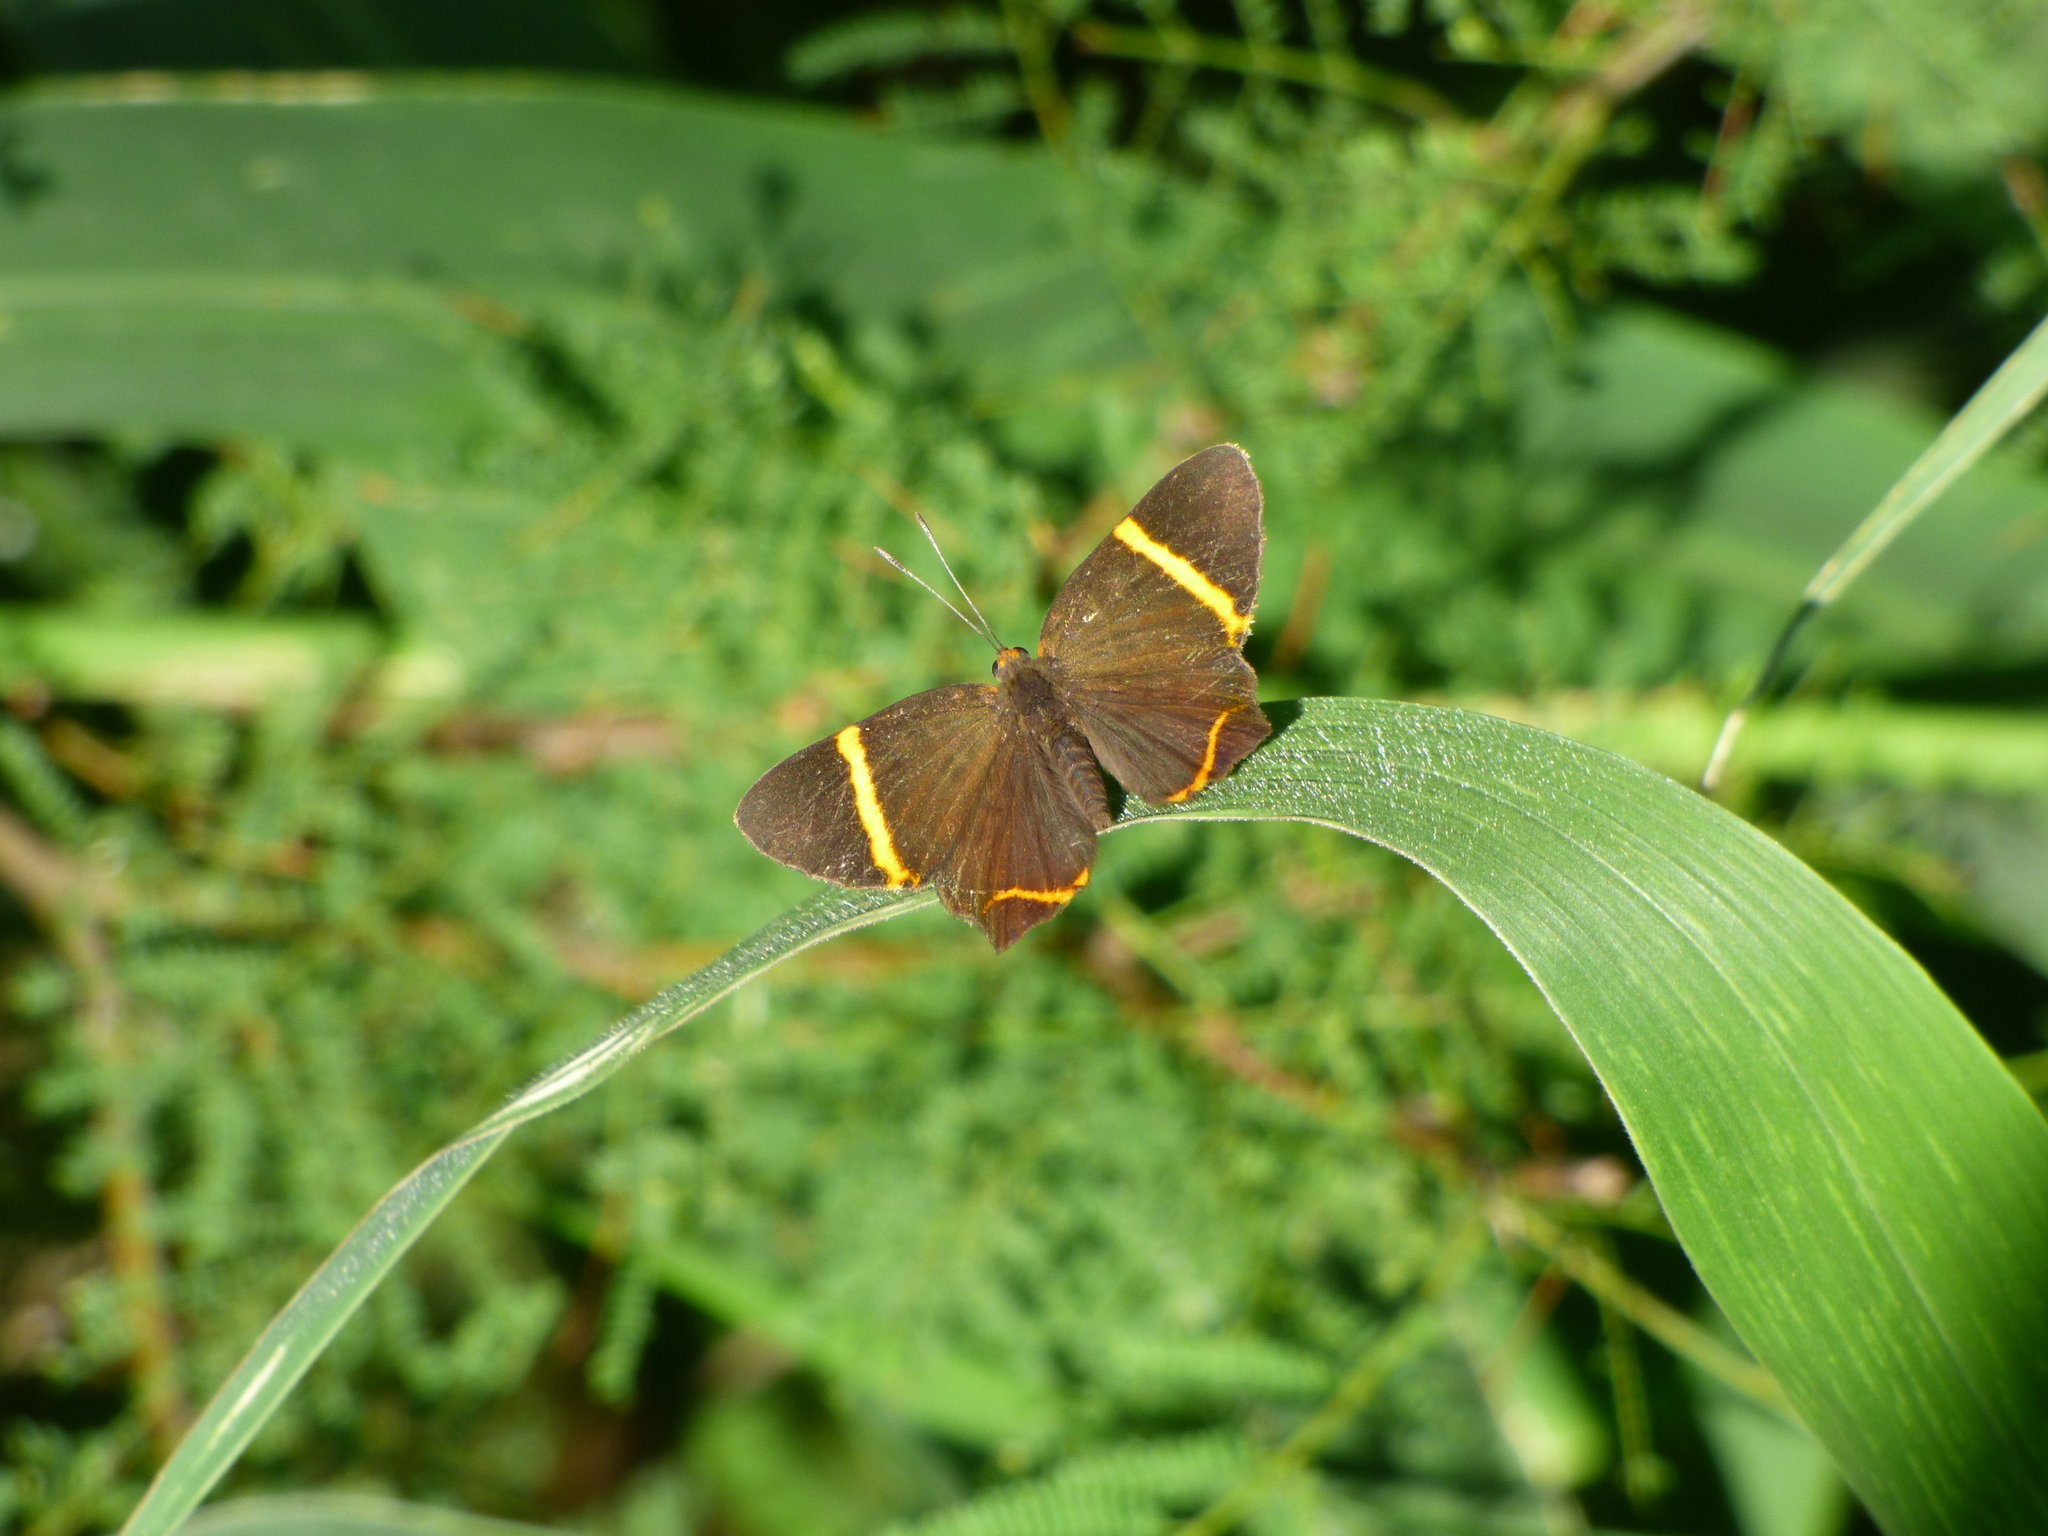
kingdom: Animalia
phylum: Arthropoda
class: Insecta
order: Lepidoptera
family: Riodinidae
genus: Riodina
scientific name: Riodina lysippoides
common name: Little dancer metalmark
